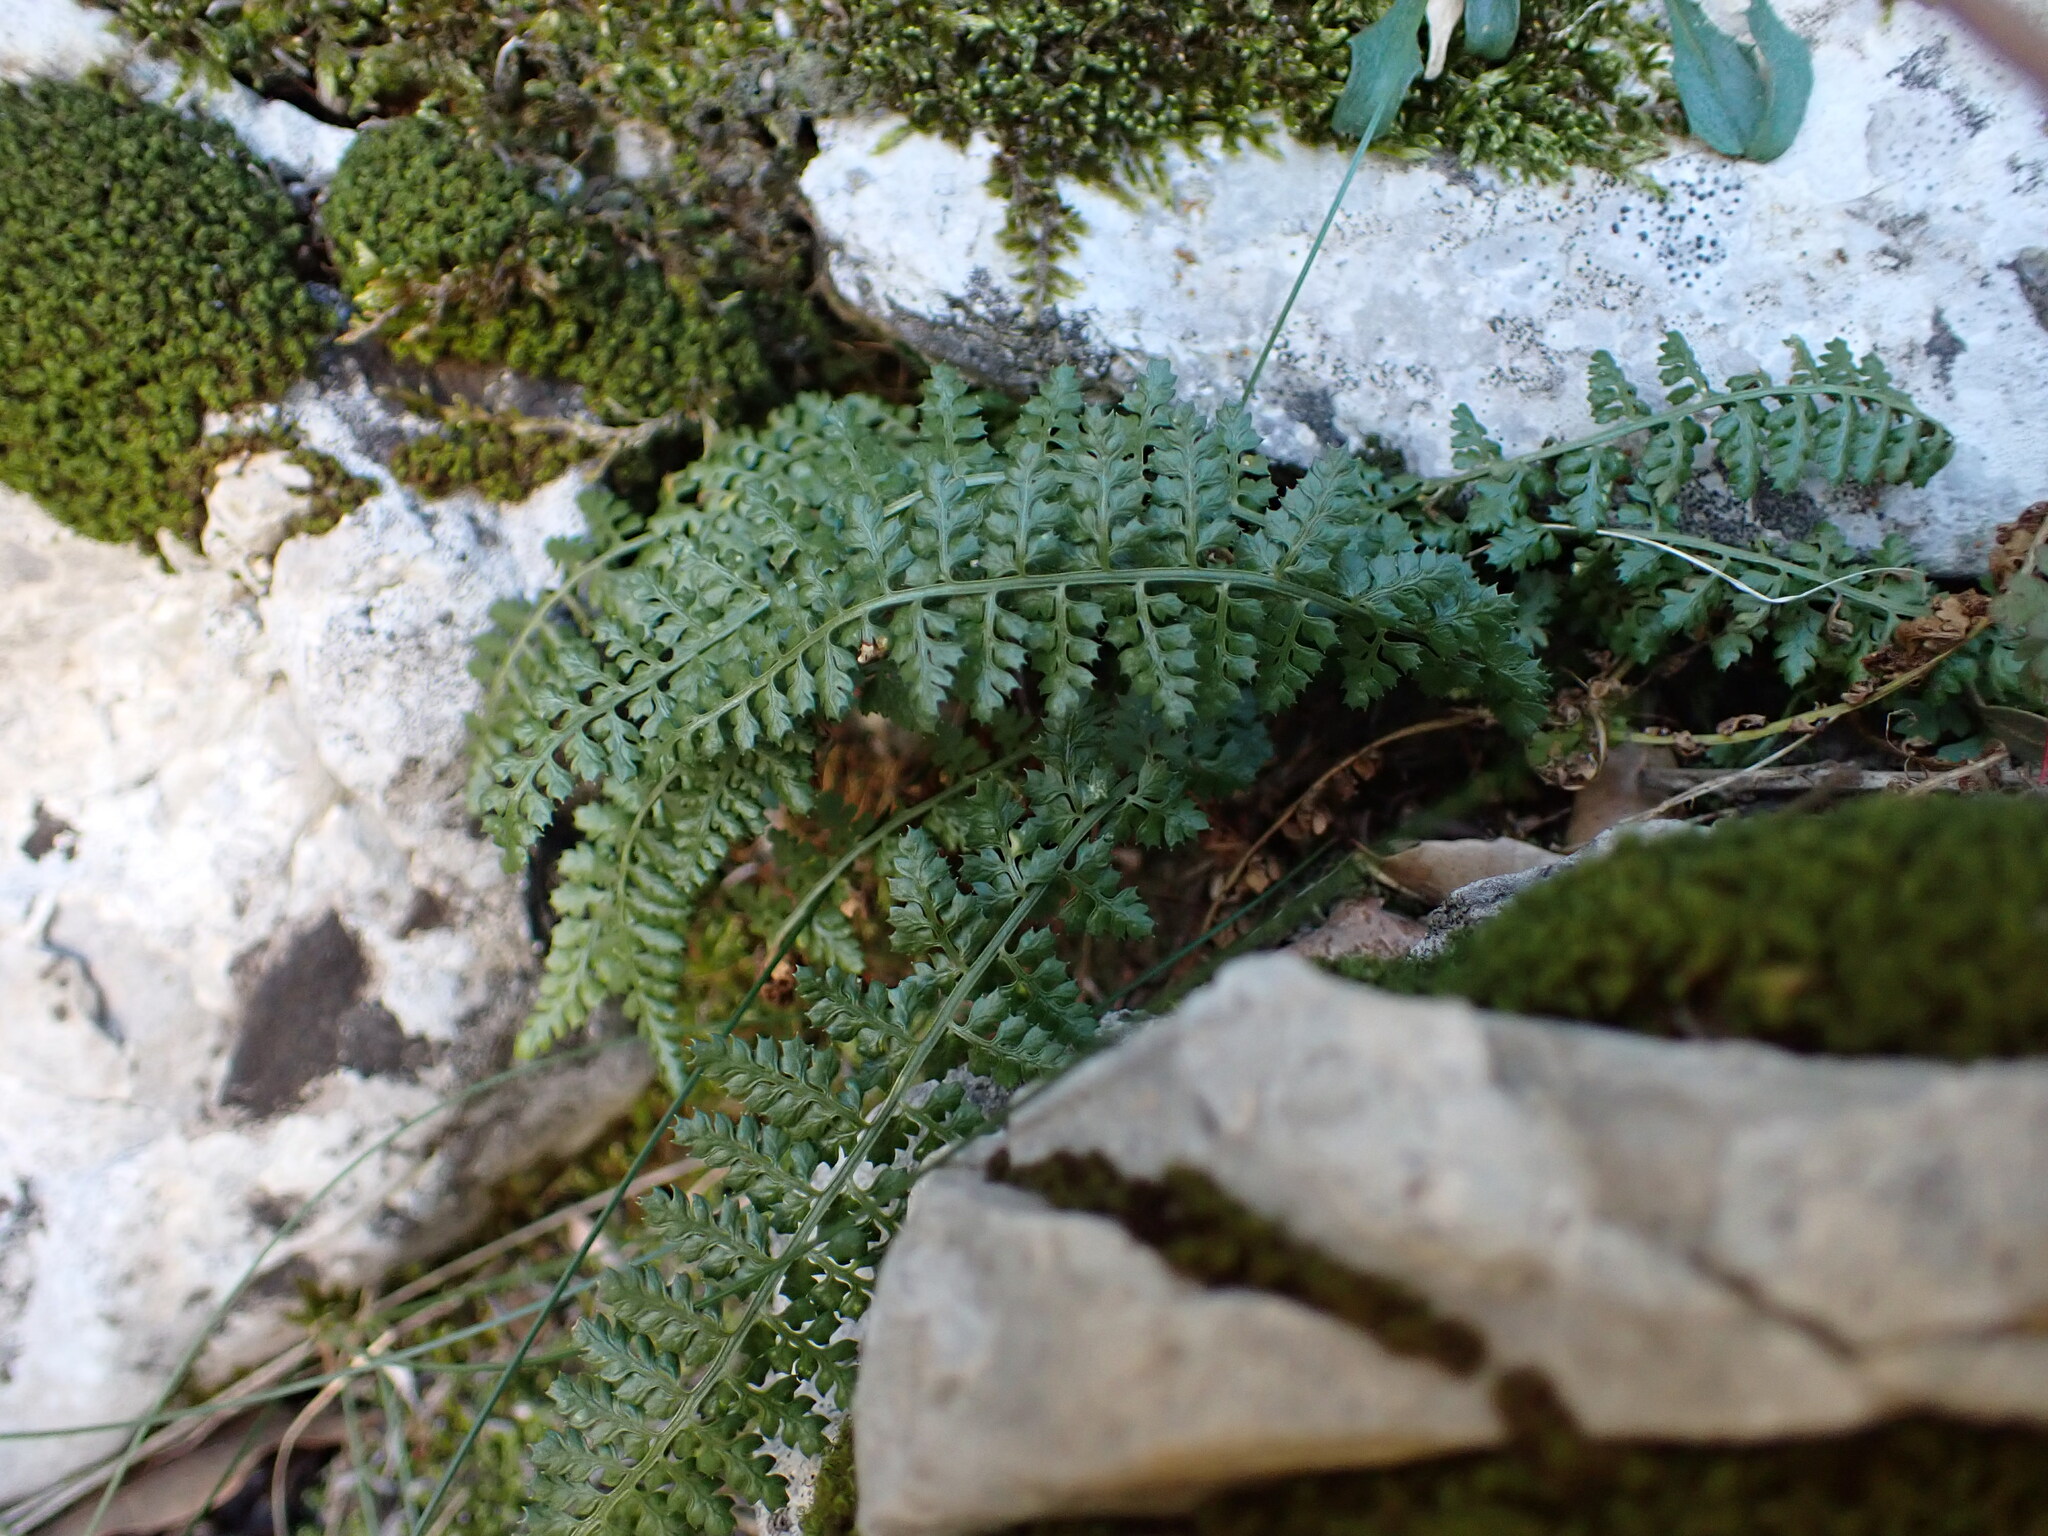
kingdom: Plantae
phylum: Tracheophyta
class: Polypodiopsida
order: Polypodiales
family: Aspleniaceae
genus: Asplenium
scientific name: Asplenium fontanum
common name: Fountain spleenwort
